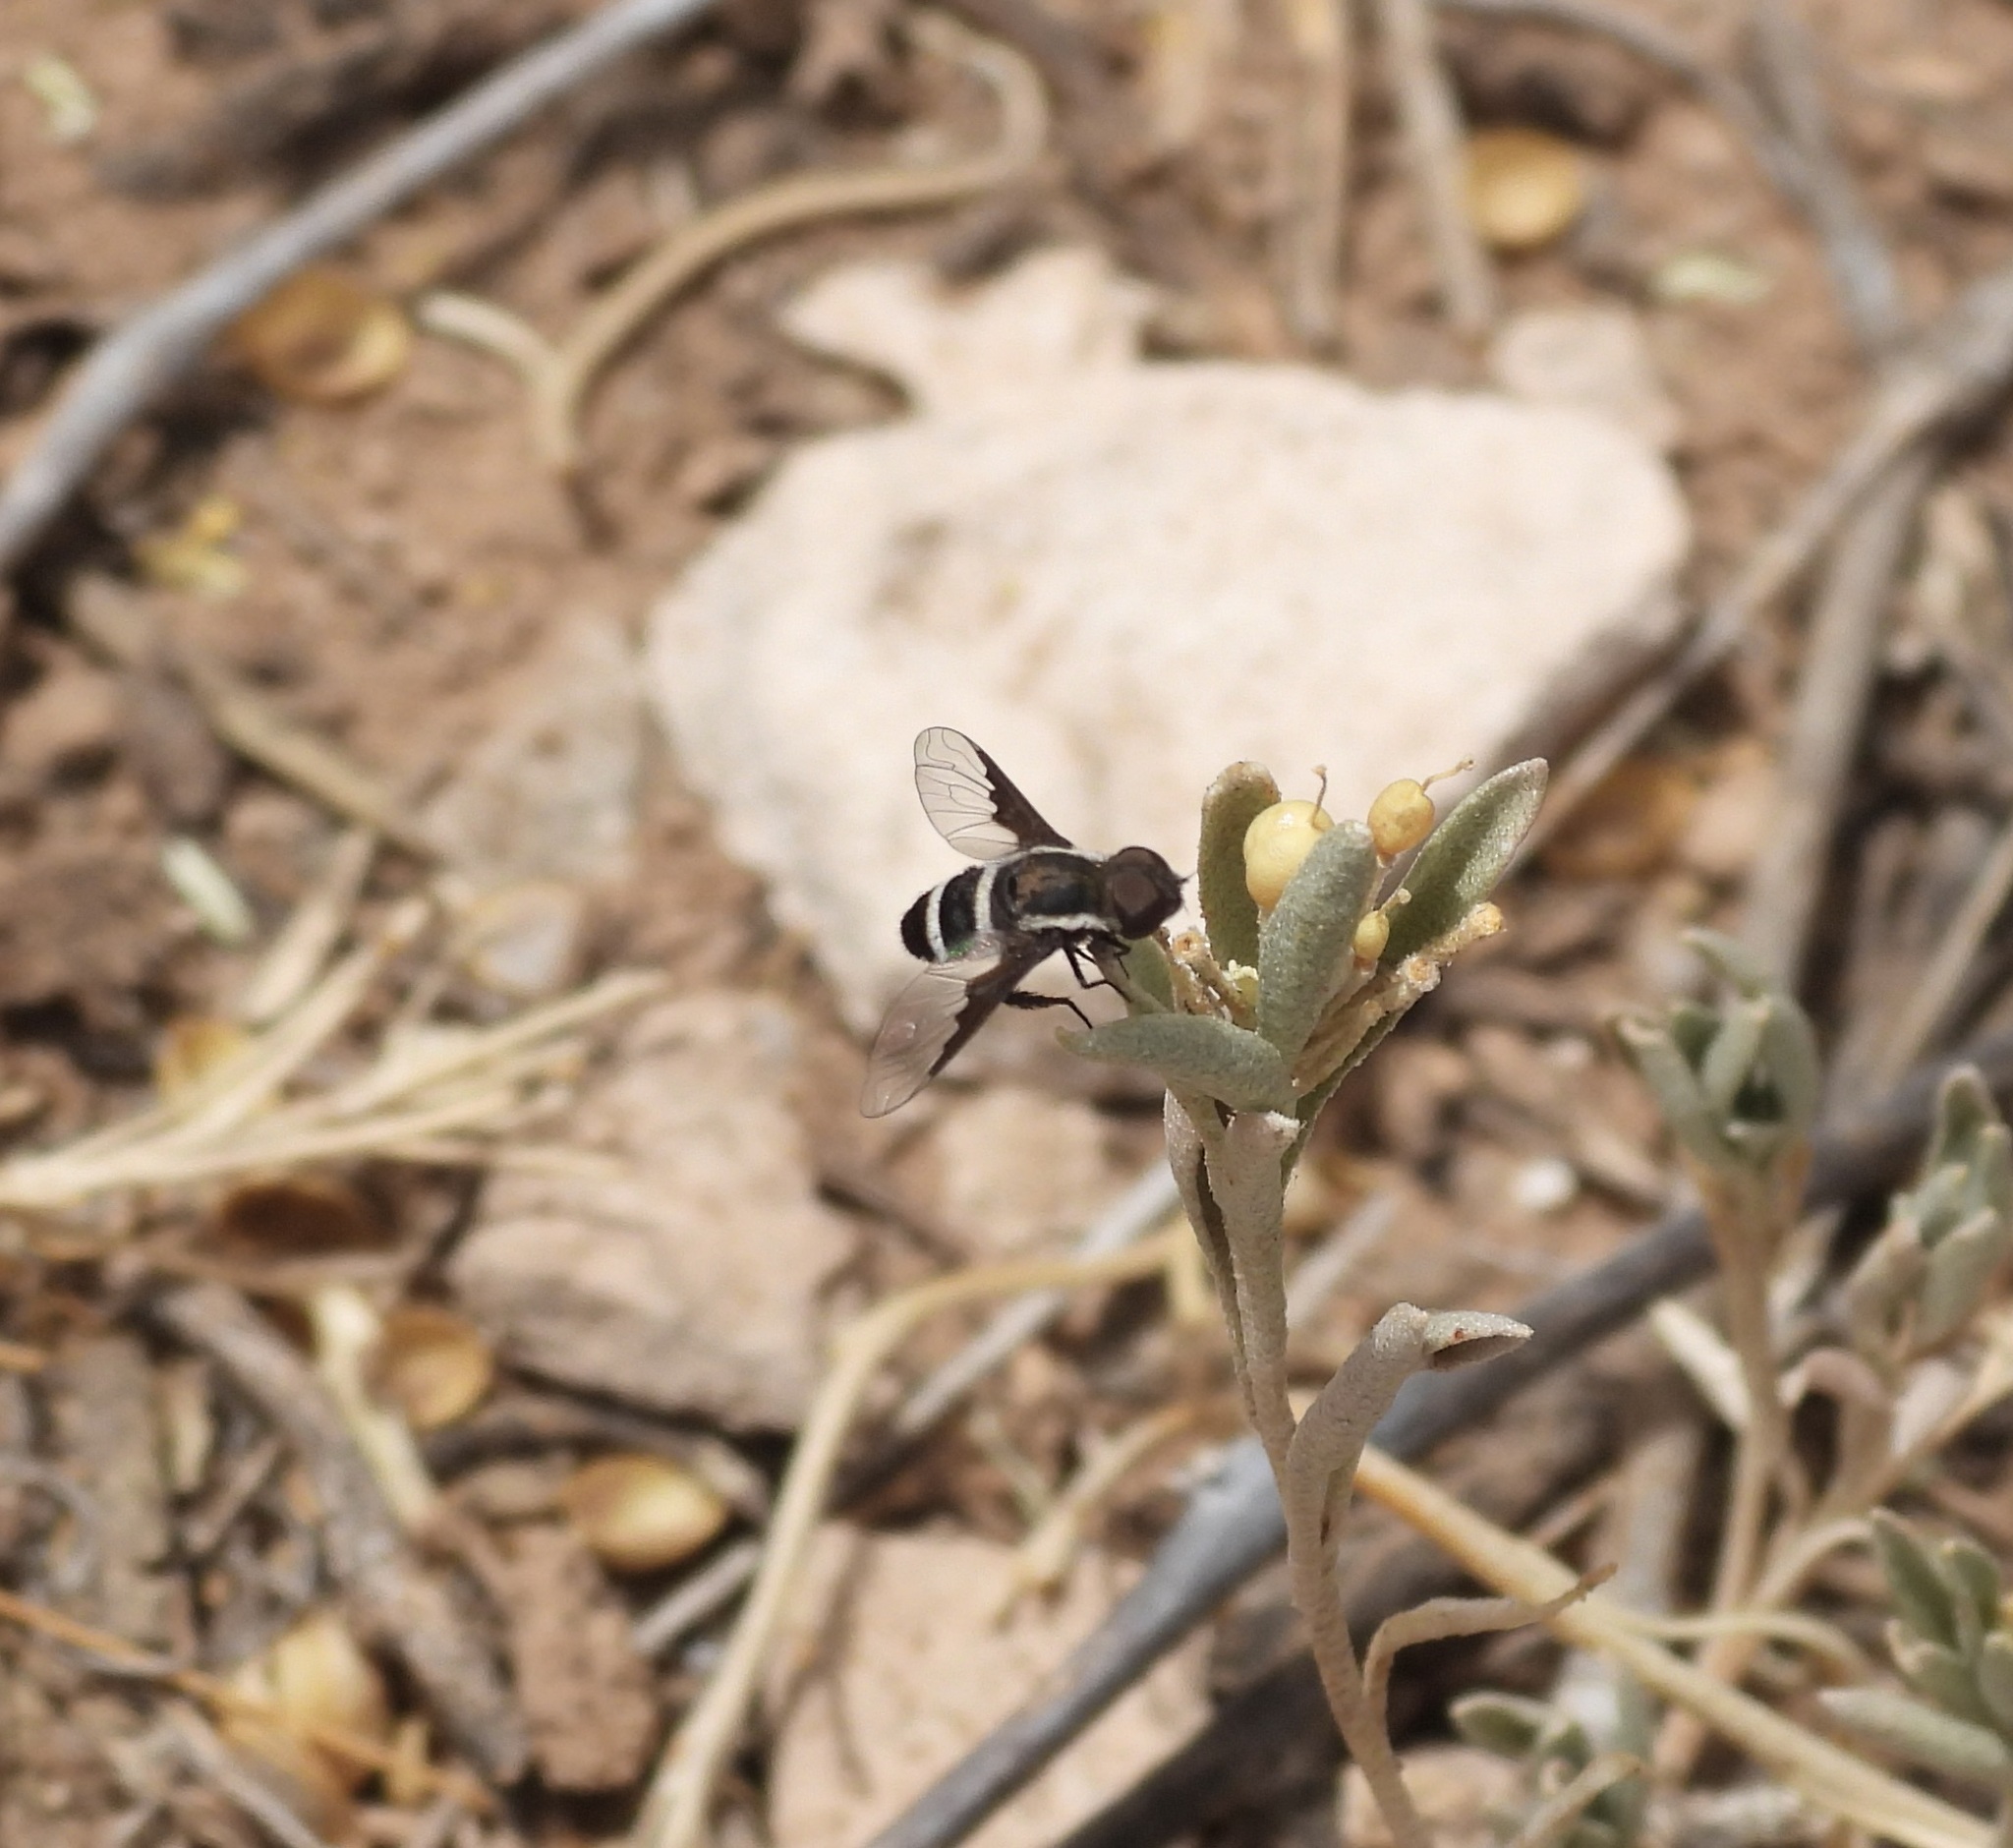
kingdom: Animalia
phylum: Arthropoda
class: Insecta
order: Diptera
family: Bombyliidae
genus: Hemipenthes
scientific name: Hemipenthes lepidotus
